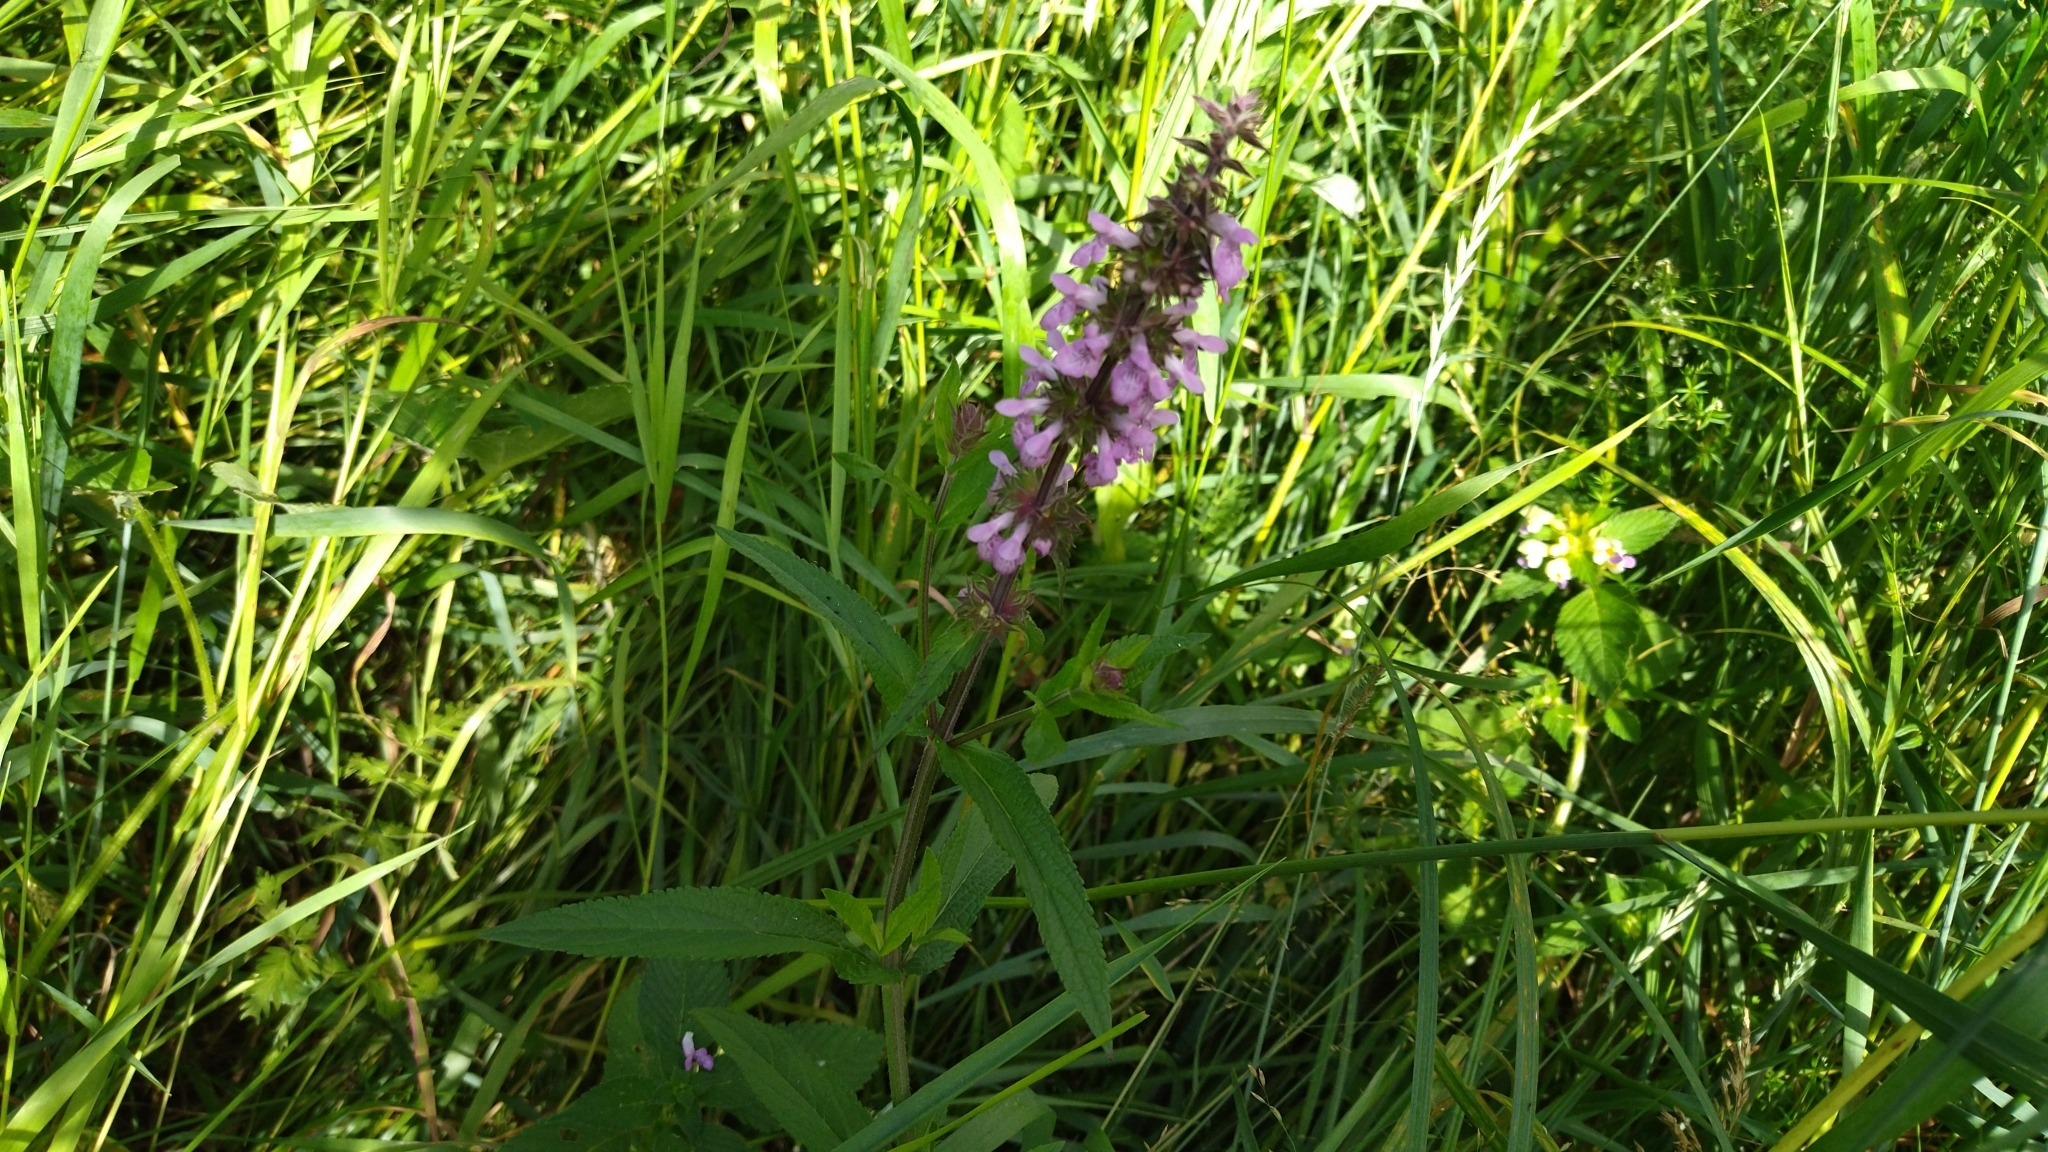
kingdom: Plantae
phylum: Tracheophyta
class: Magnoliopsida
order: Lamiales
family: Lamiaceae
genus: Stachys
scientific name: Stachys palustris
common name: Marsh woundwort
